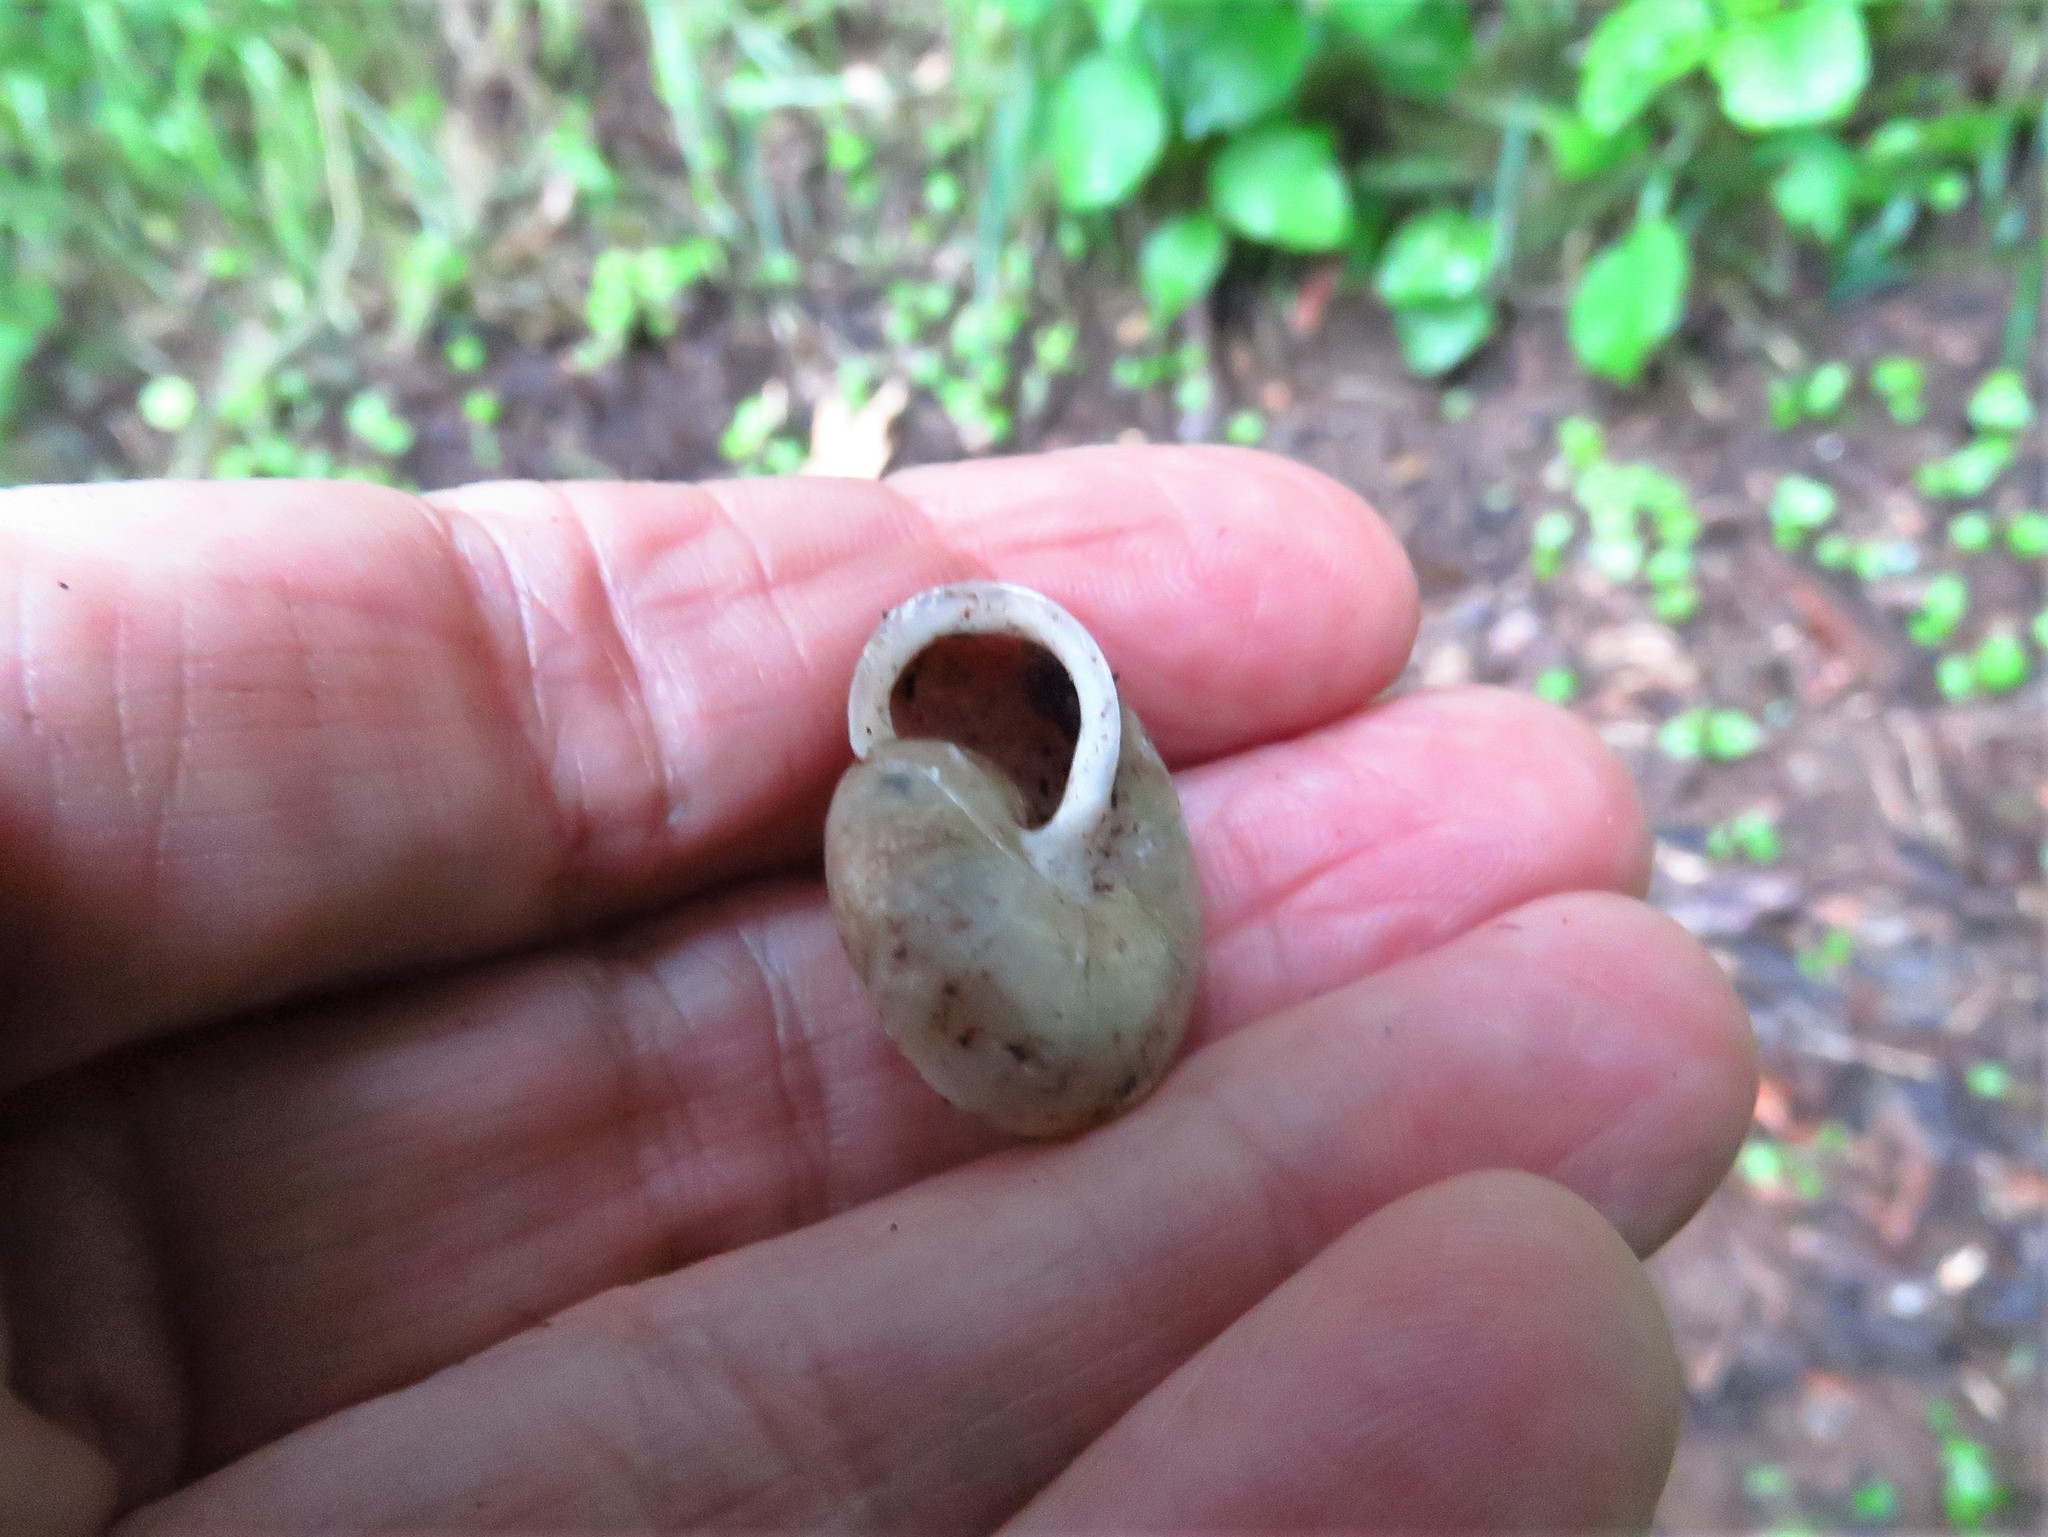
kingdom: Animalia
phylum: Mollusca
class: Gastropoda
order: Stylommatophora
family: Polygyridae
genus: Patera
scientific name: Patera roemeri
